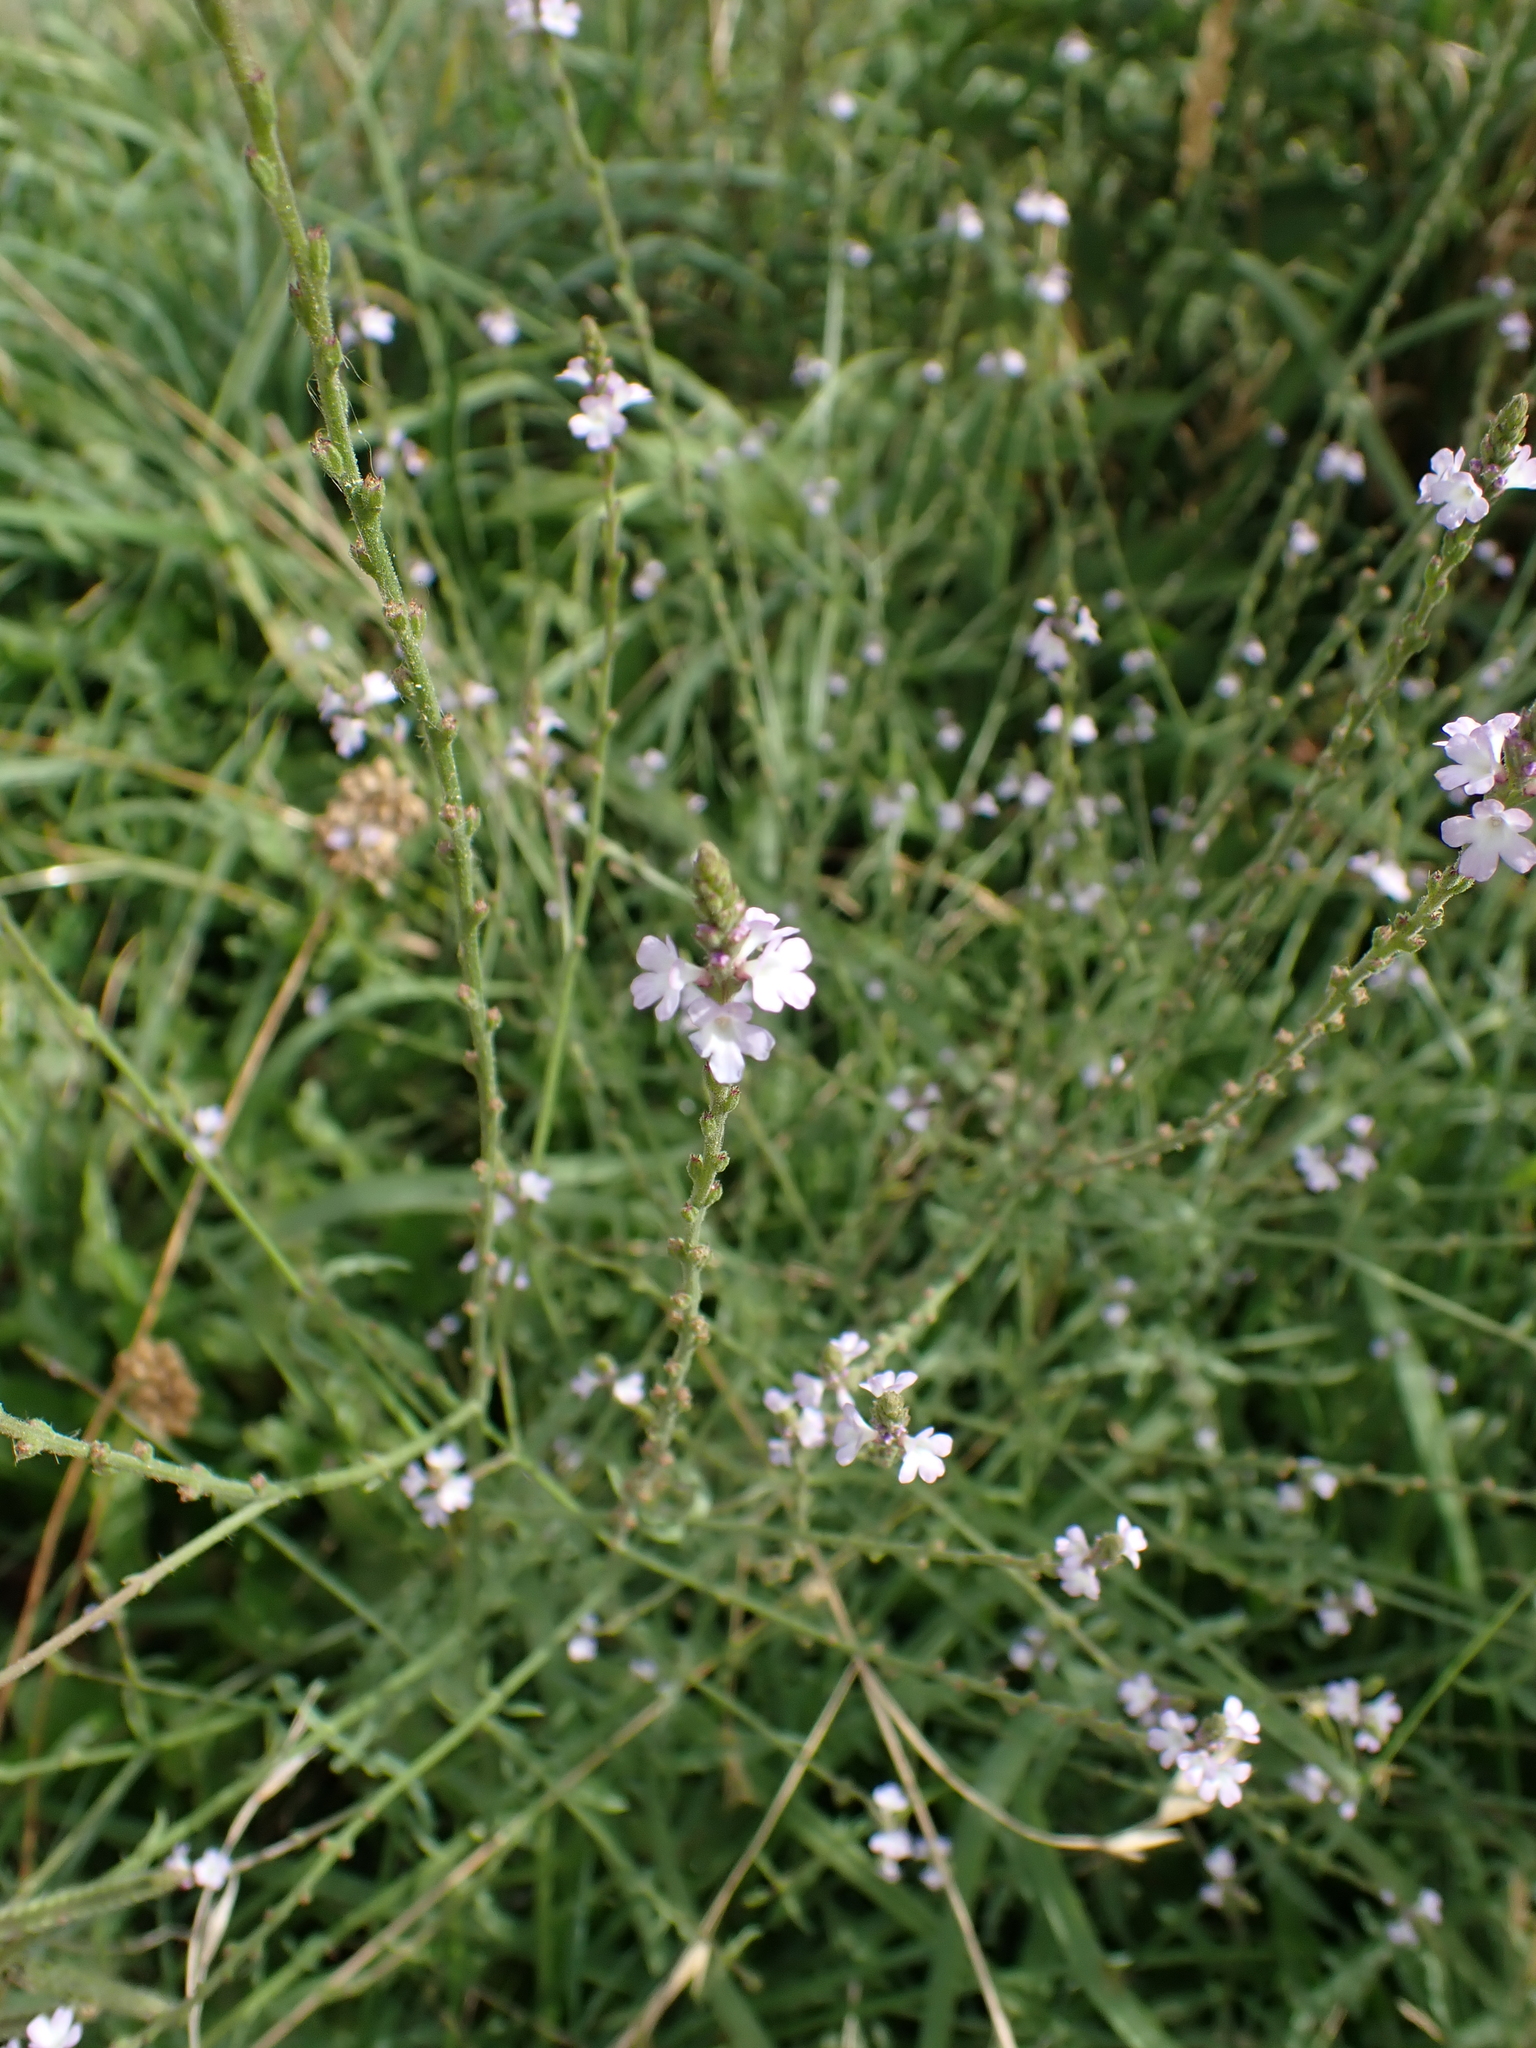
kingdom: Plantae
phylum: Tracheophyta
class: Magnoliopsida
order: Lamiales
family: Verbenaceae
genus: Verbena
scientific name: Verbena officinalis
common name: Vervain
